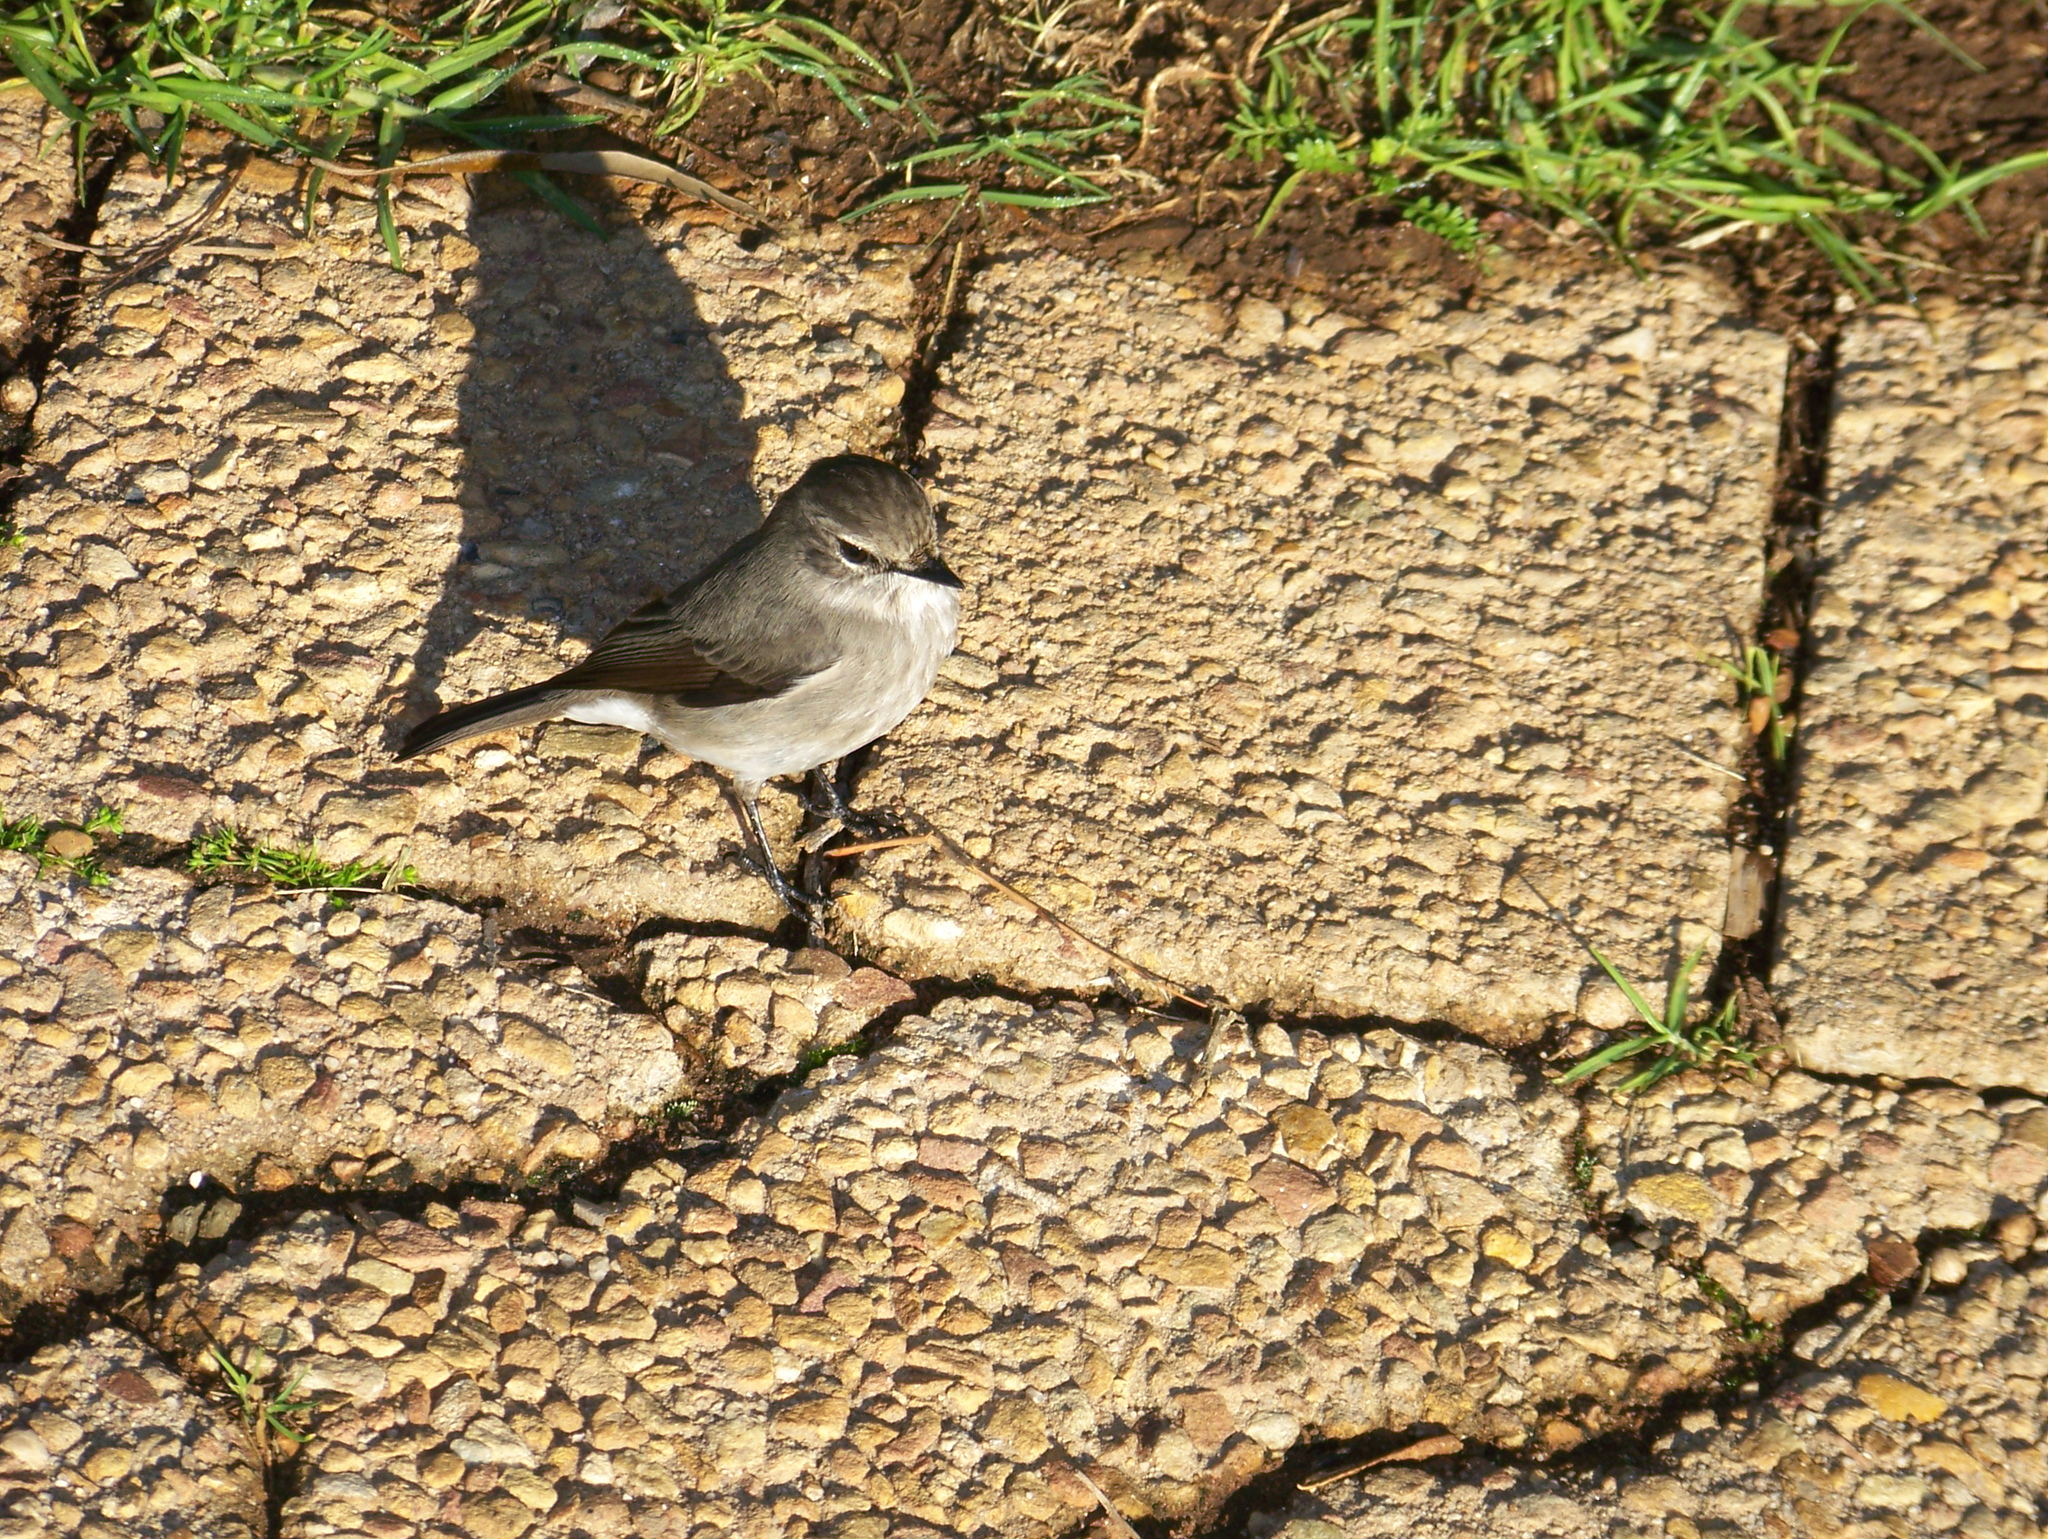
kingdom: Animalia
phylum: Chordata
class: Aves
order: Passeriformes
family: Muscicapidae
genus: Muscicapa
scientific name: Muscicapa adusta
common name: African dusky flycatcher
